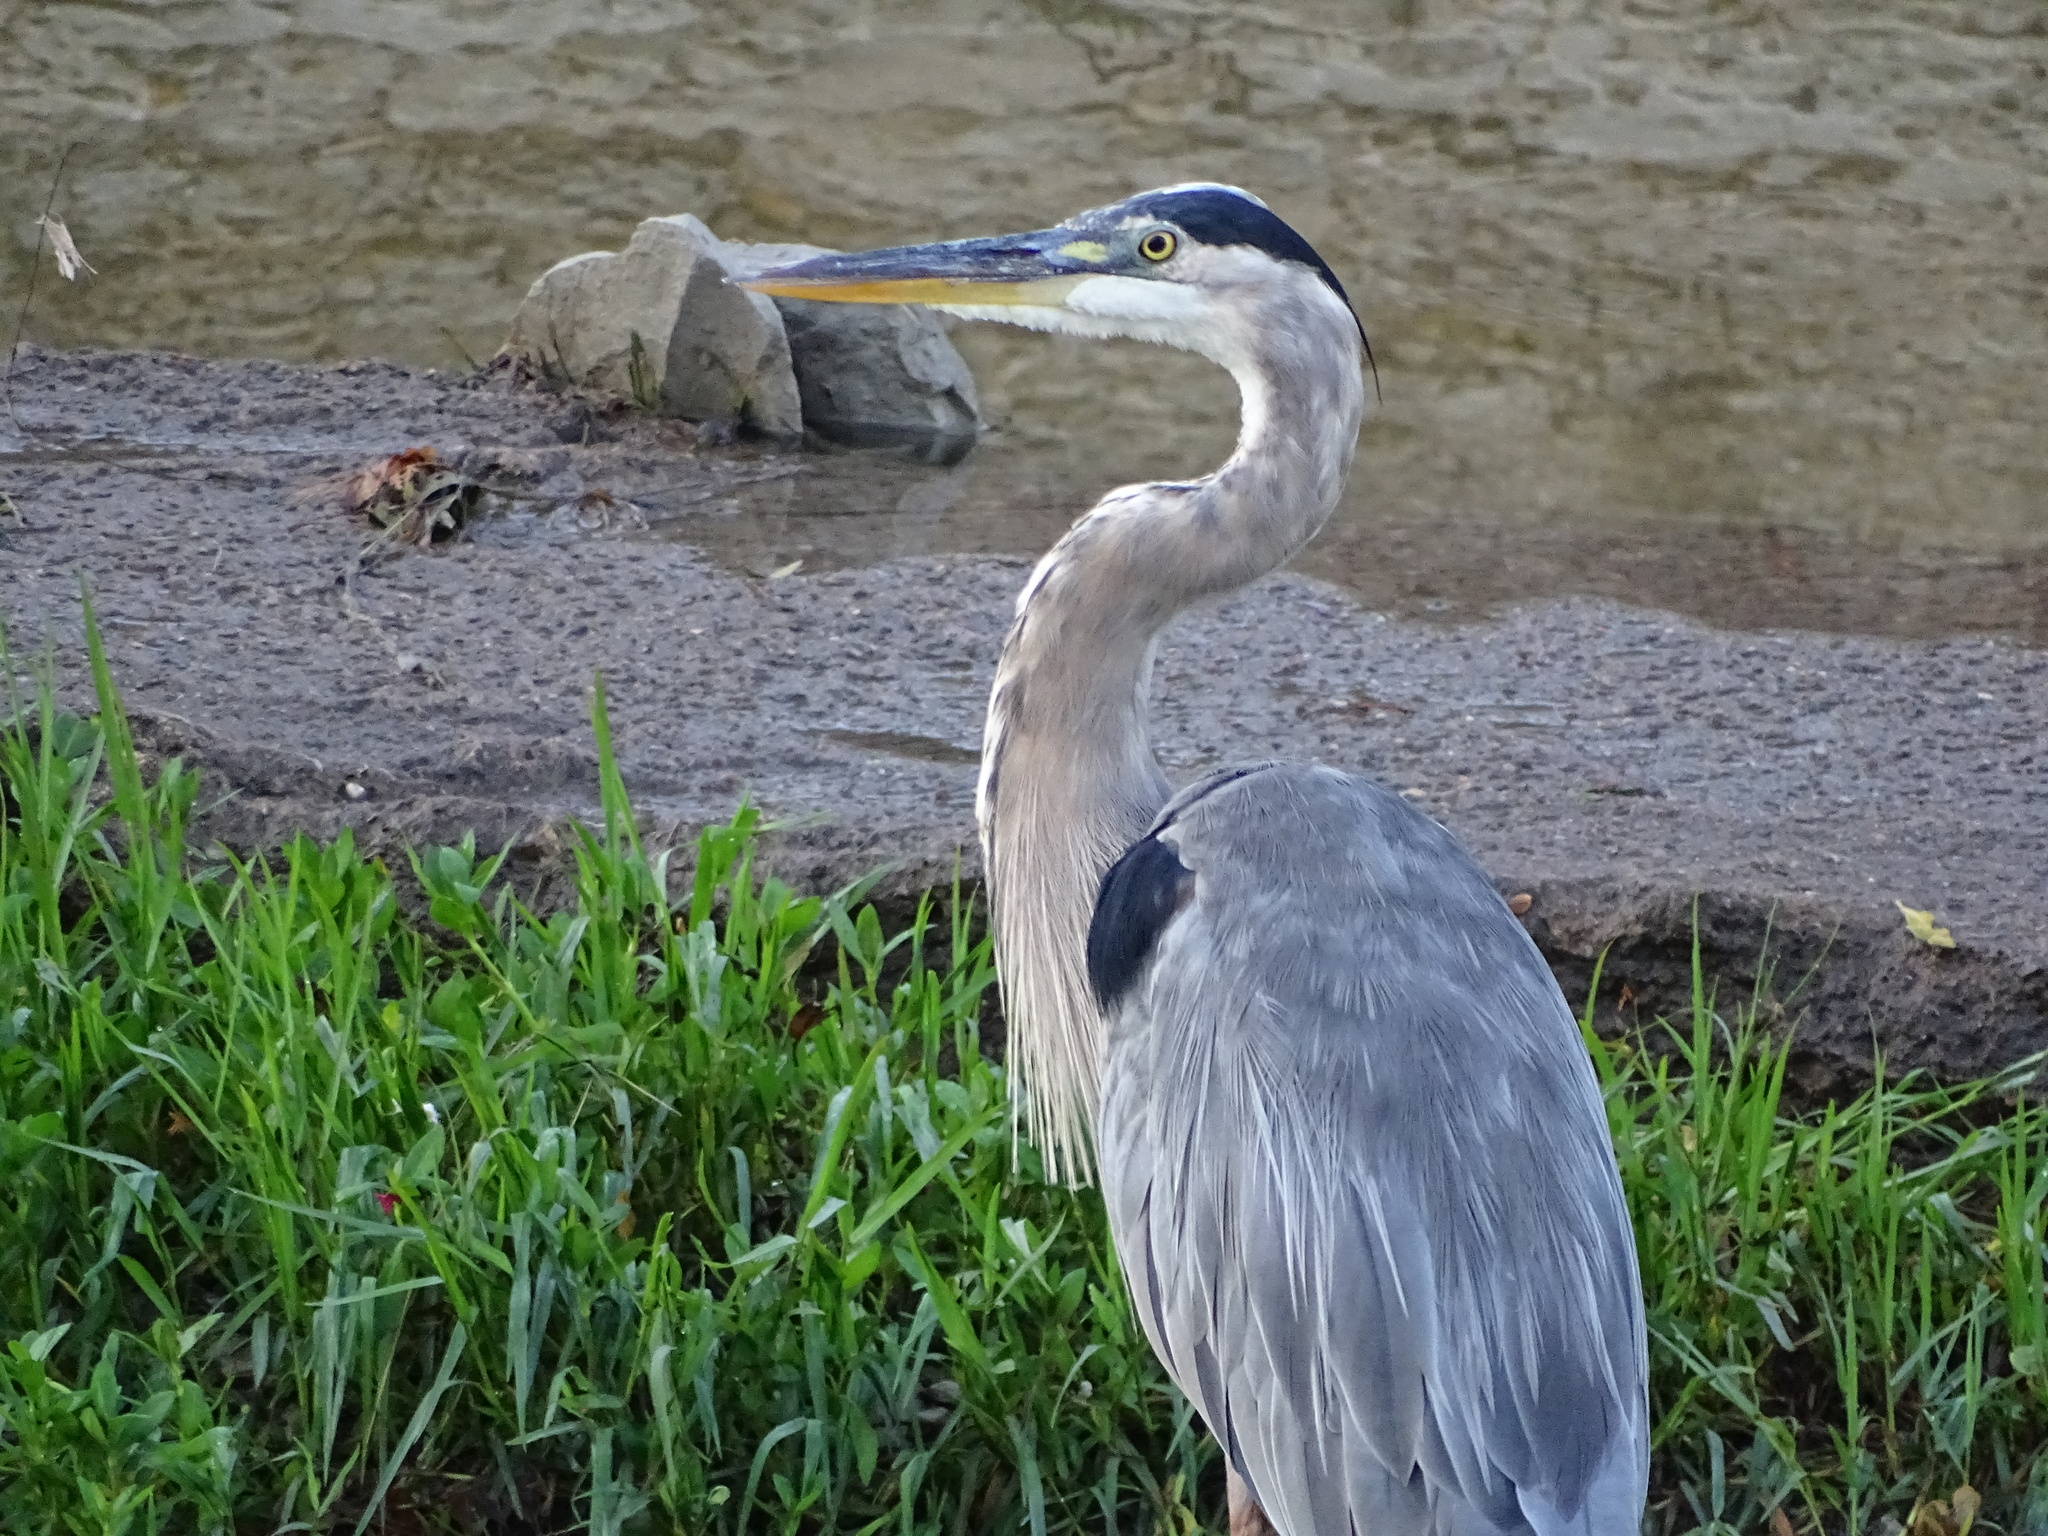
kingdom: Animalia
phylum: Chordata
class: Aves
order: Pelecaniformes
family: Ardeidae
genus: Ardea
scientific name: Ardea herodias
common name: Great blue heron
